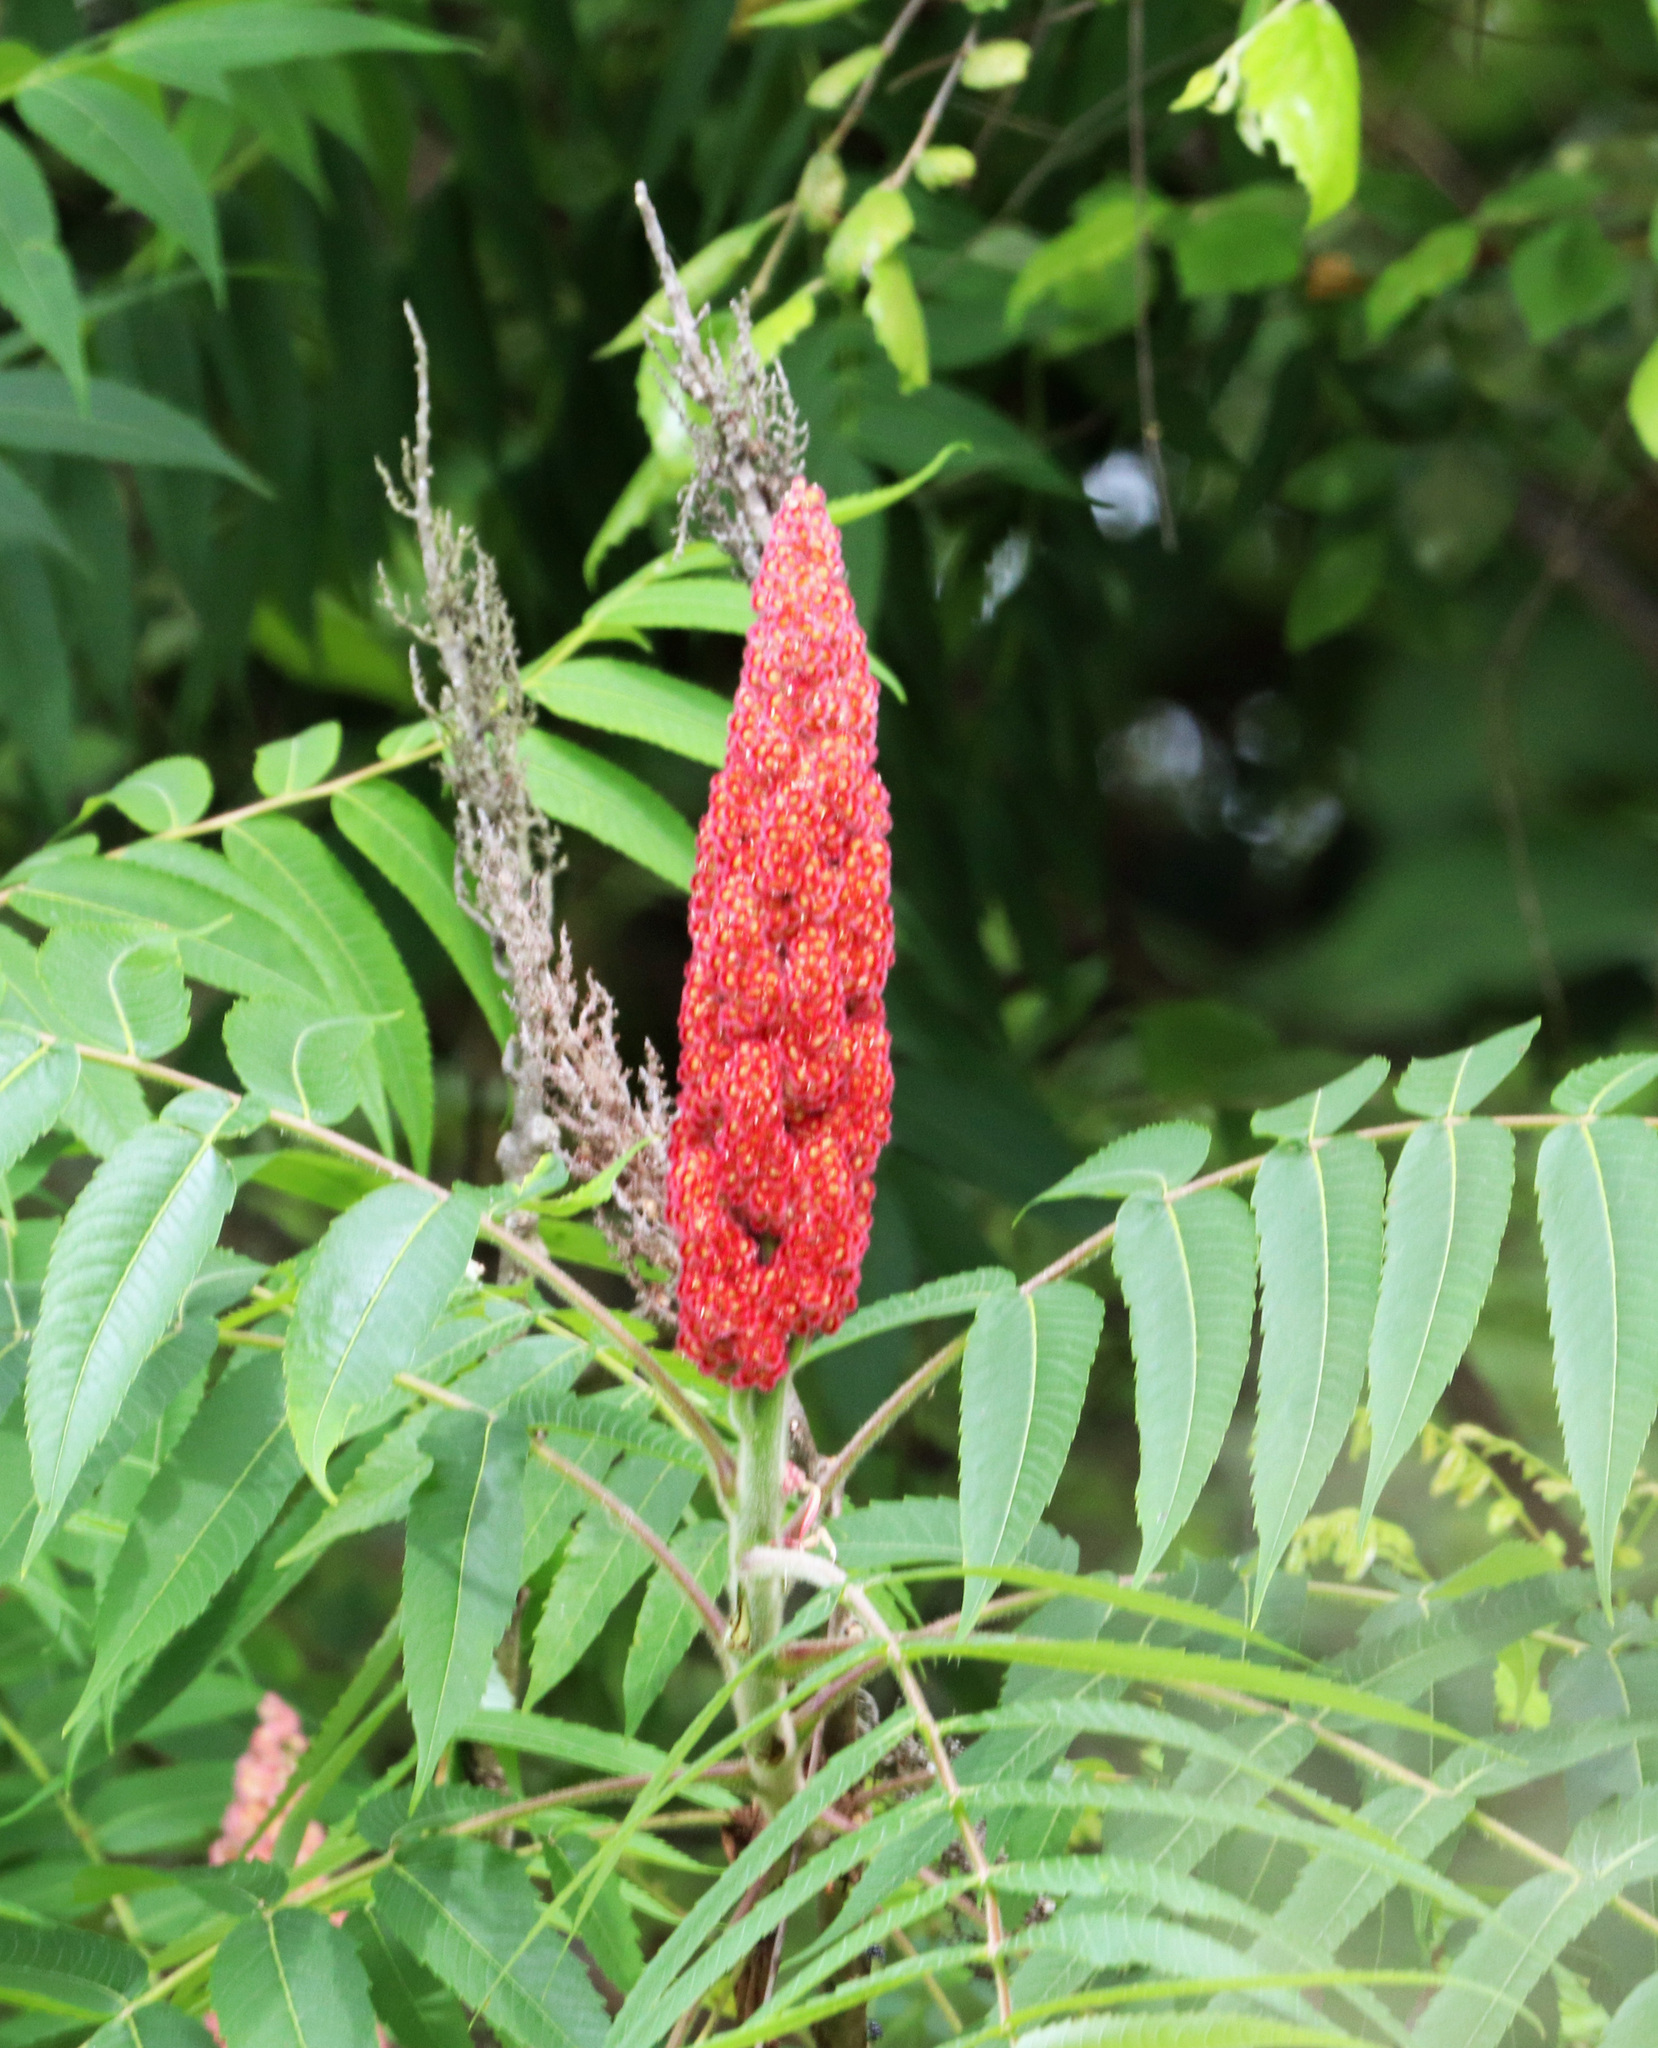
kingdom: Plantae
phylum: Tracheophyta
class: Magnoliopsida
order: Sapindales
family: Anacardiaceae
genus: Rhus
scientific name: Rhus typhina
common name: Staghorn sumac
